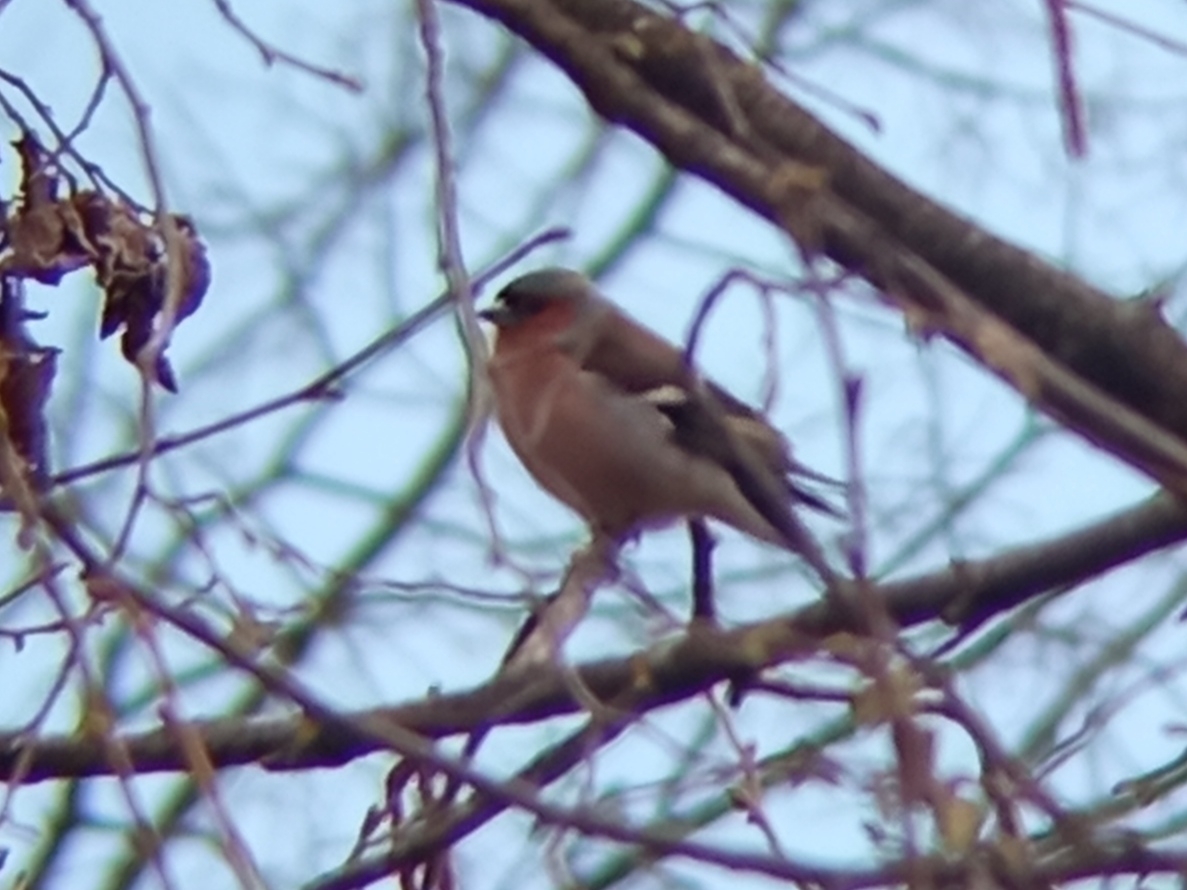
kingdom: Animalia
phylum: Chordata
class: Aves
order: Passeriformes
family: Fringillidae
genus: Fringilla
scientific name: Fringilla coelebs
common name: Common chaffinch
